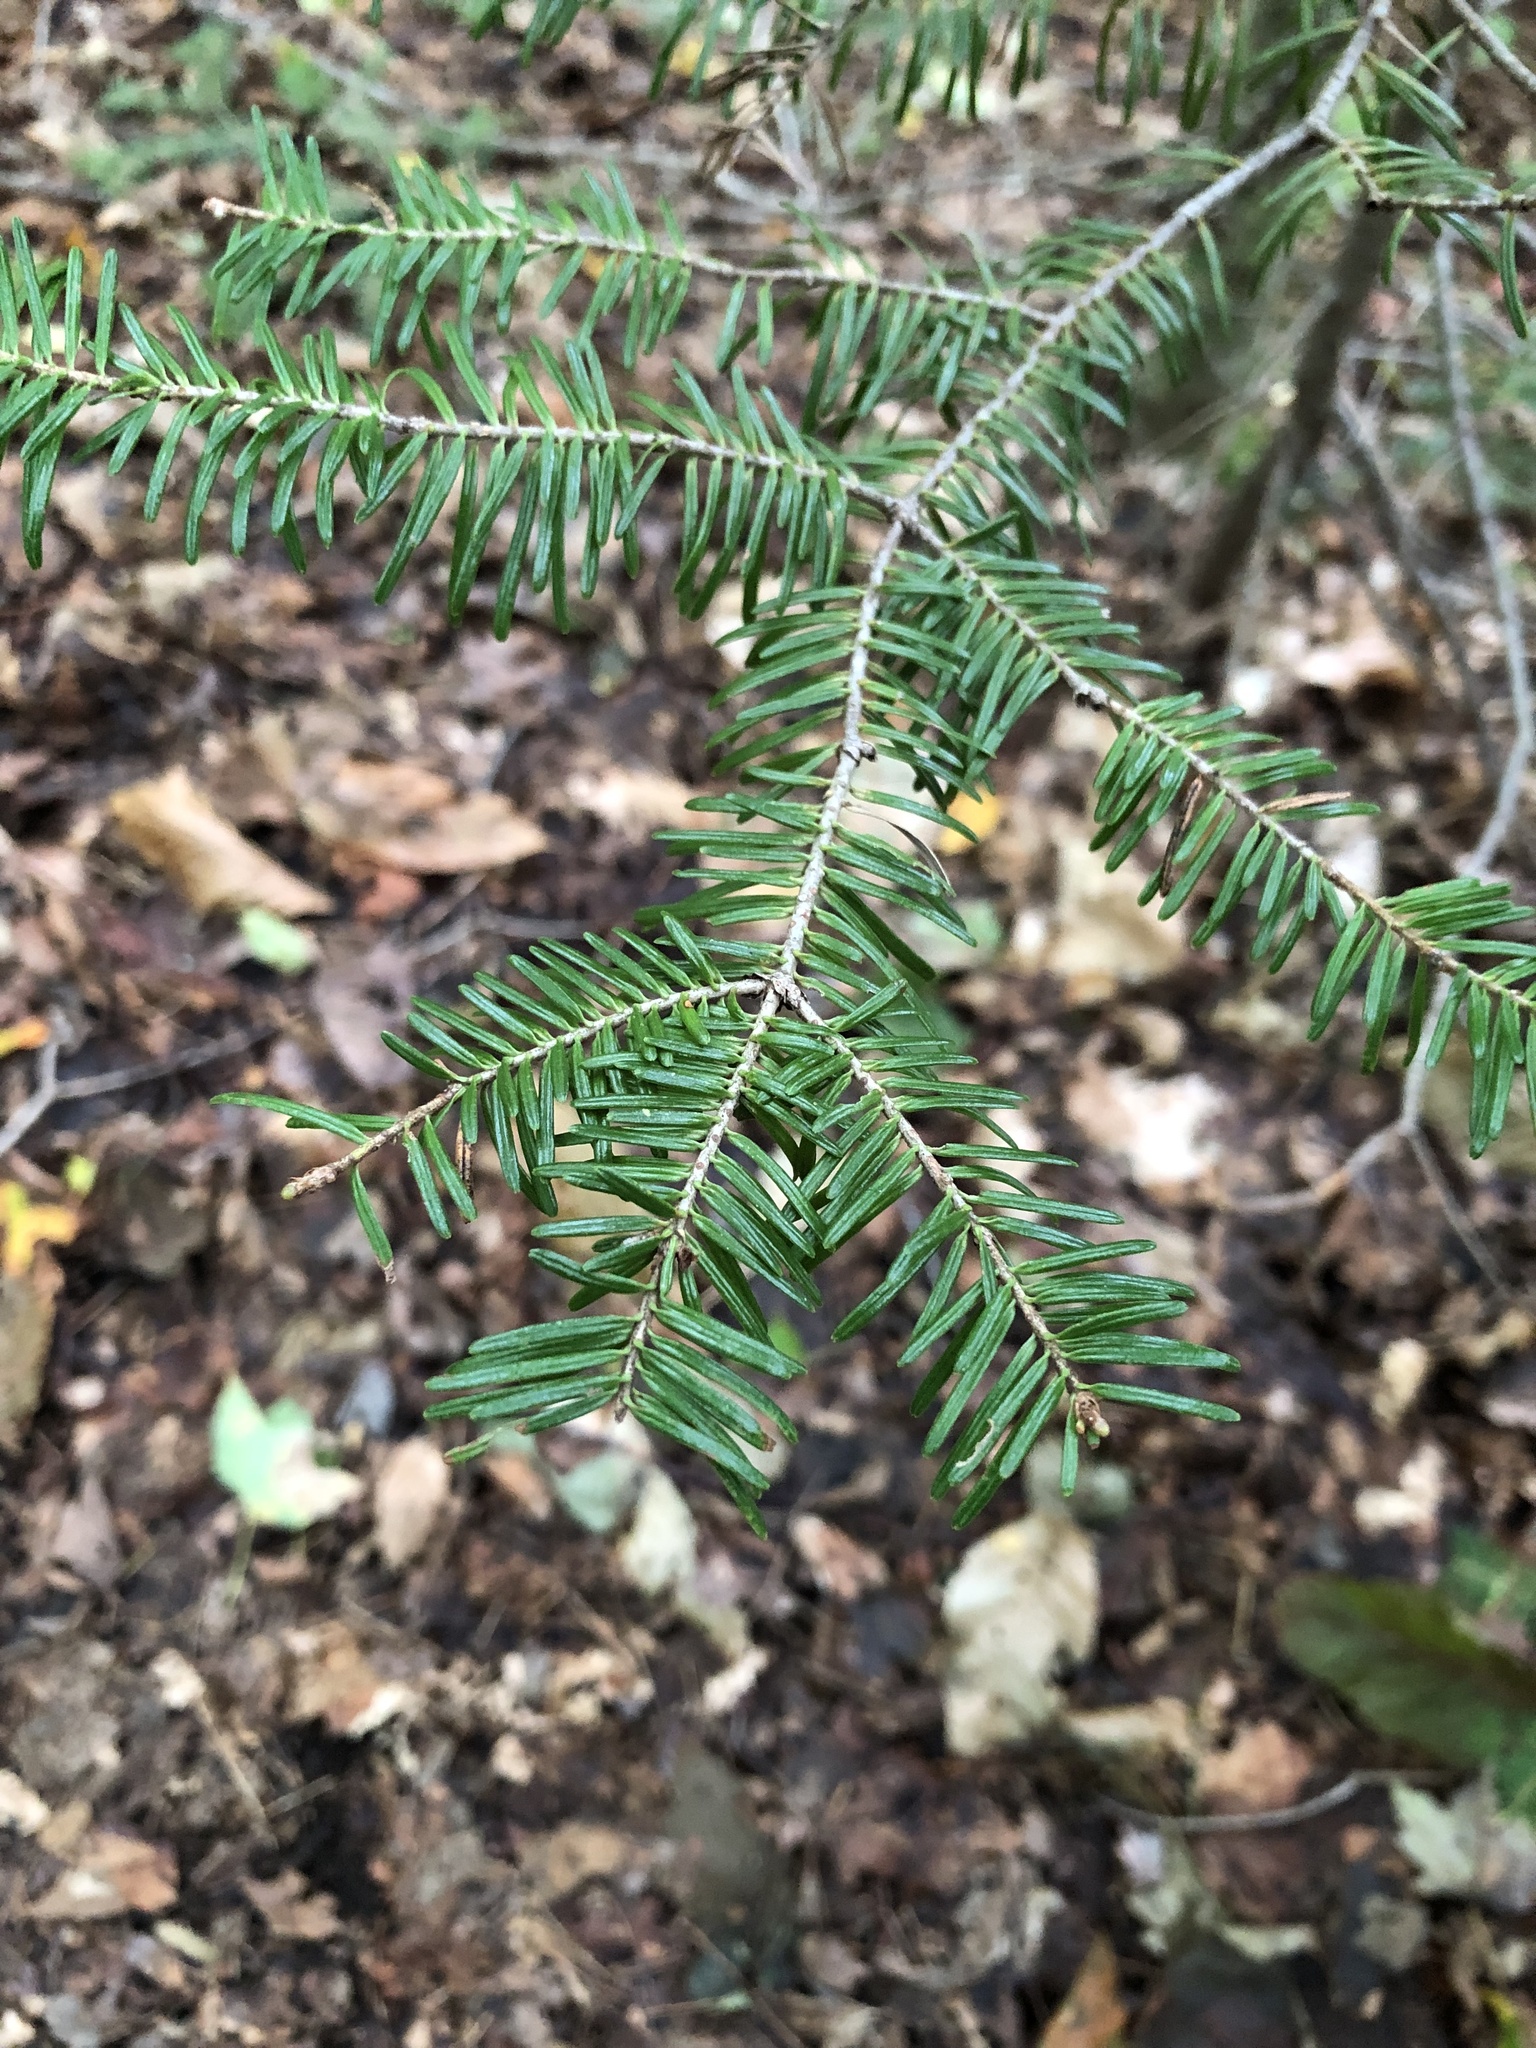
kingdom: Plantae
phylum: Tracheophyta
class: Pinopsida
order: Pinales
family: Pinaceae
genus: Abies
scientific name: Abies balsamea
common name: Balsam fir
